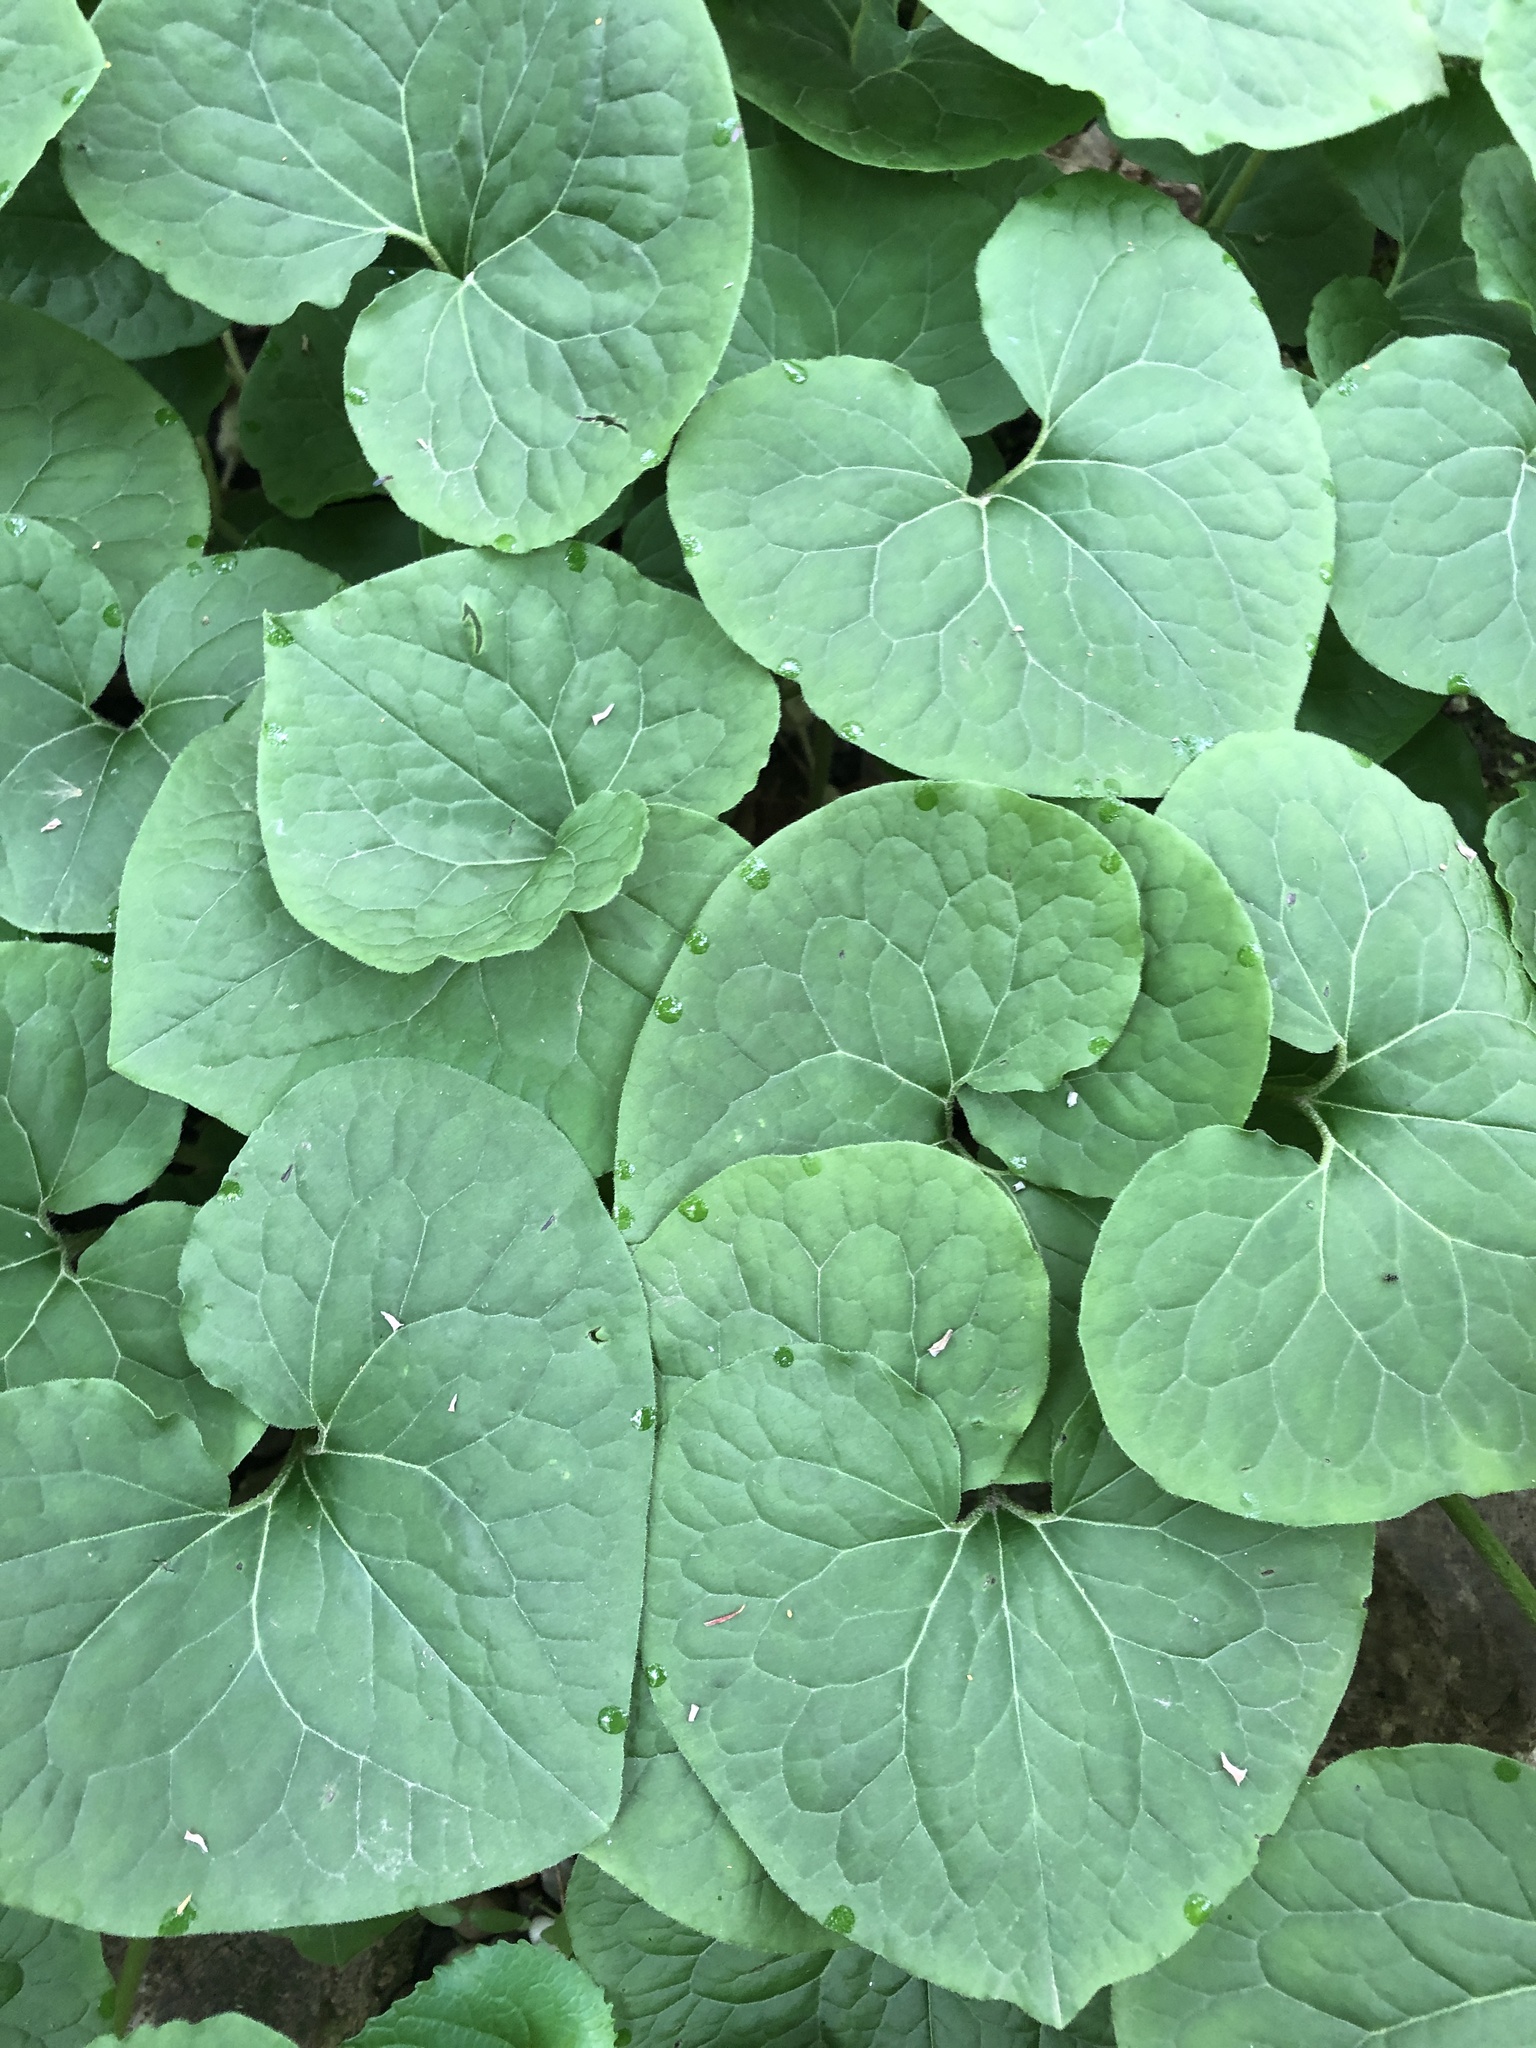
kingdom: Plantae
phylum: Tracheophyta
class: Magnoliopsida
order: Piperales
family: Aristolochiaceae
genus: Asarum
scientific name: Asarum canadense
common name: Wild ginger
